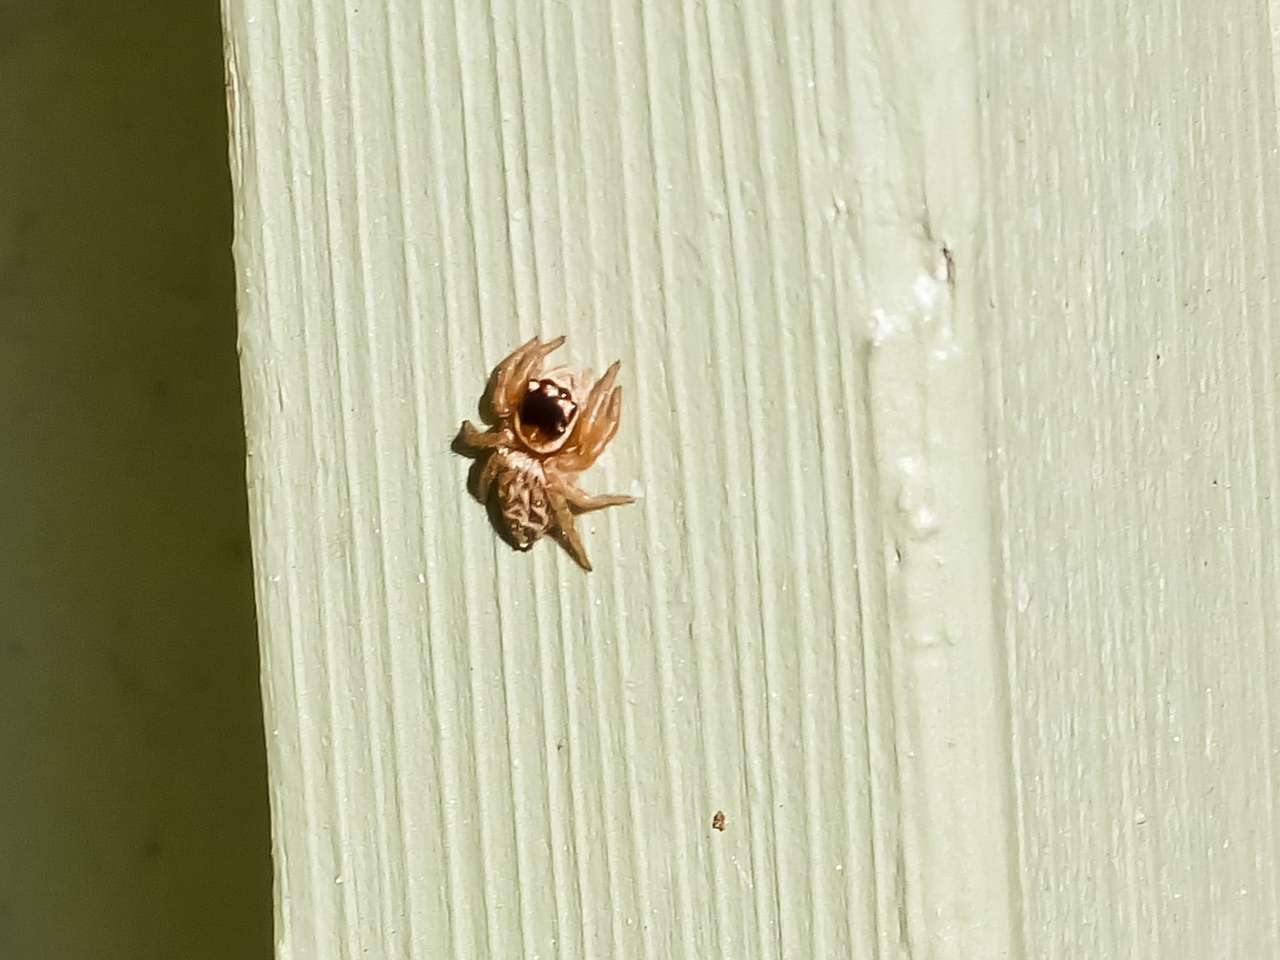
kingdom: Animalia
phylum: Arthropoda
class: Arachnida
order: Araneae
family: Salticidae
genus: Maratus
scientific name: Maratus griseus
